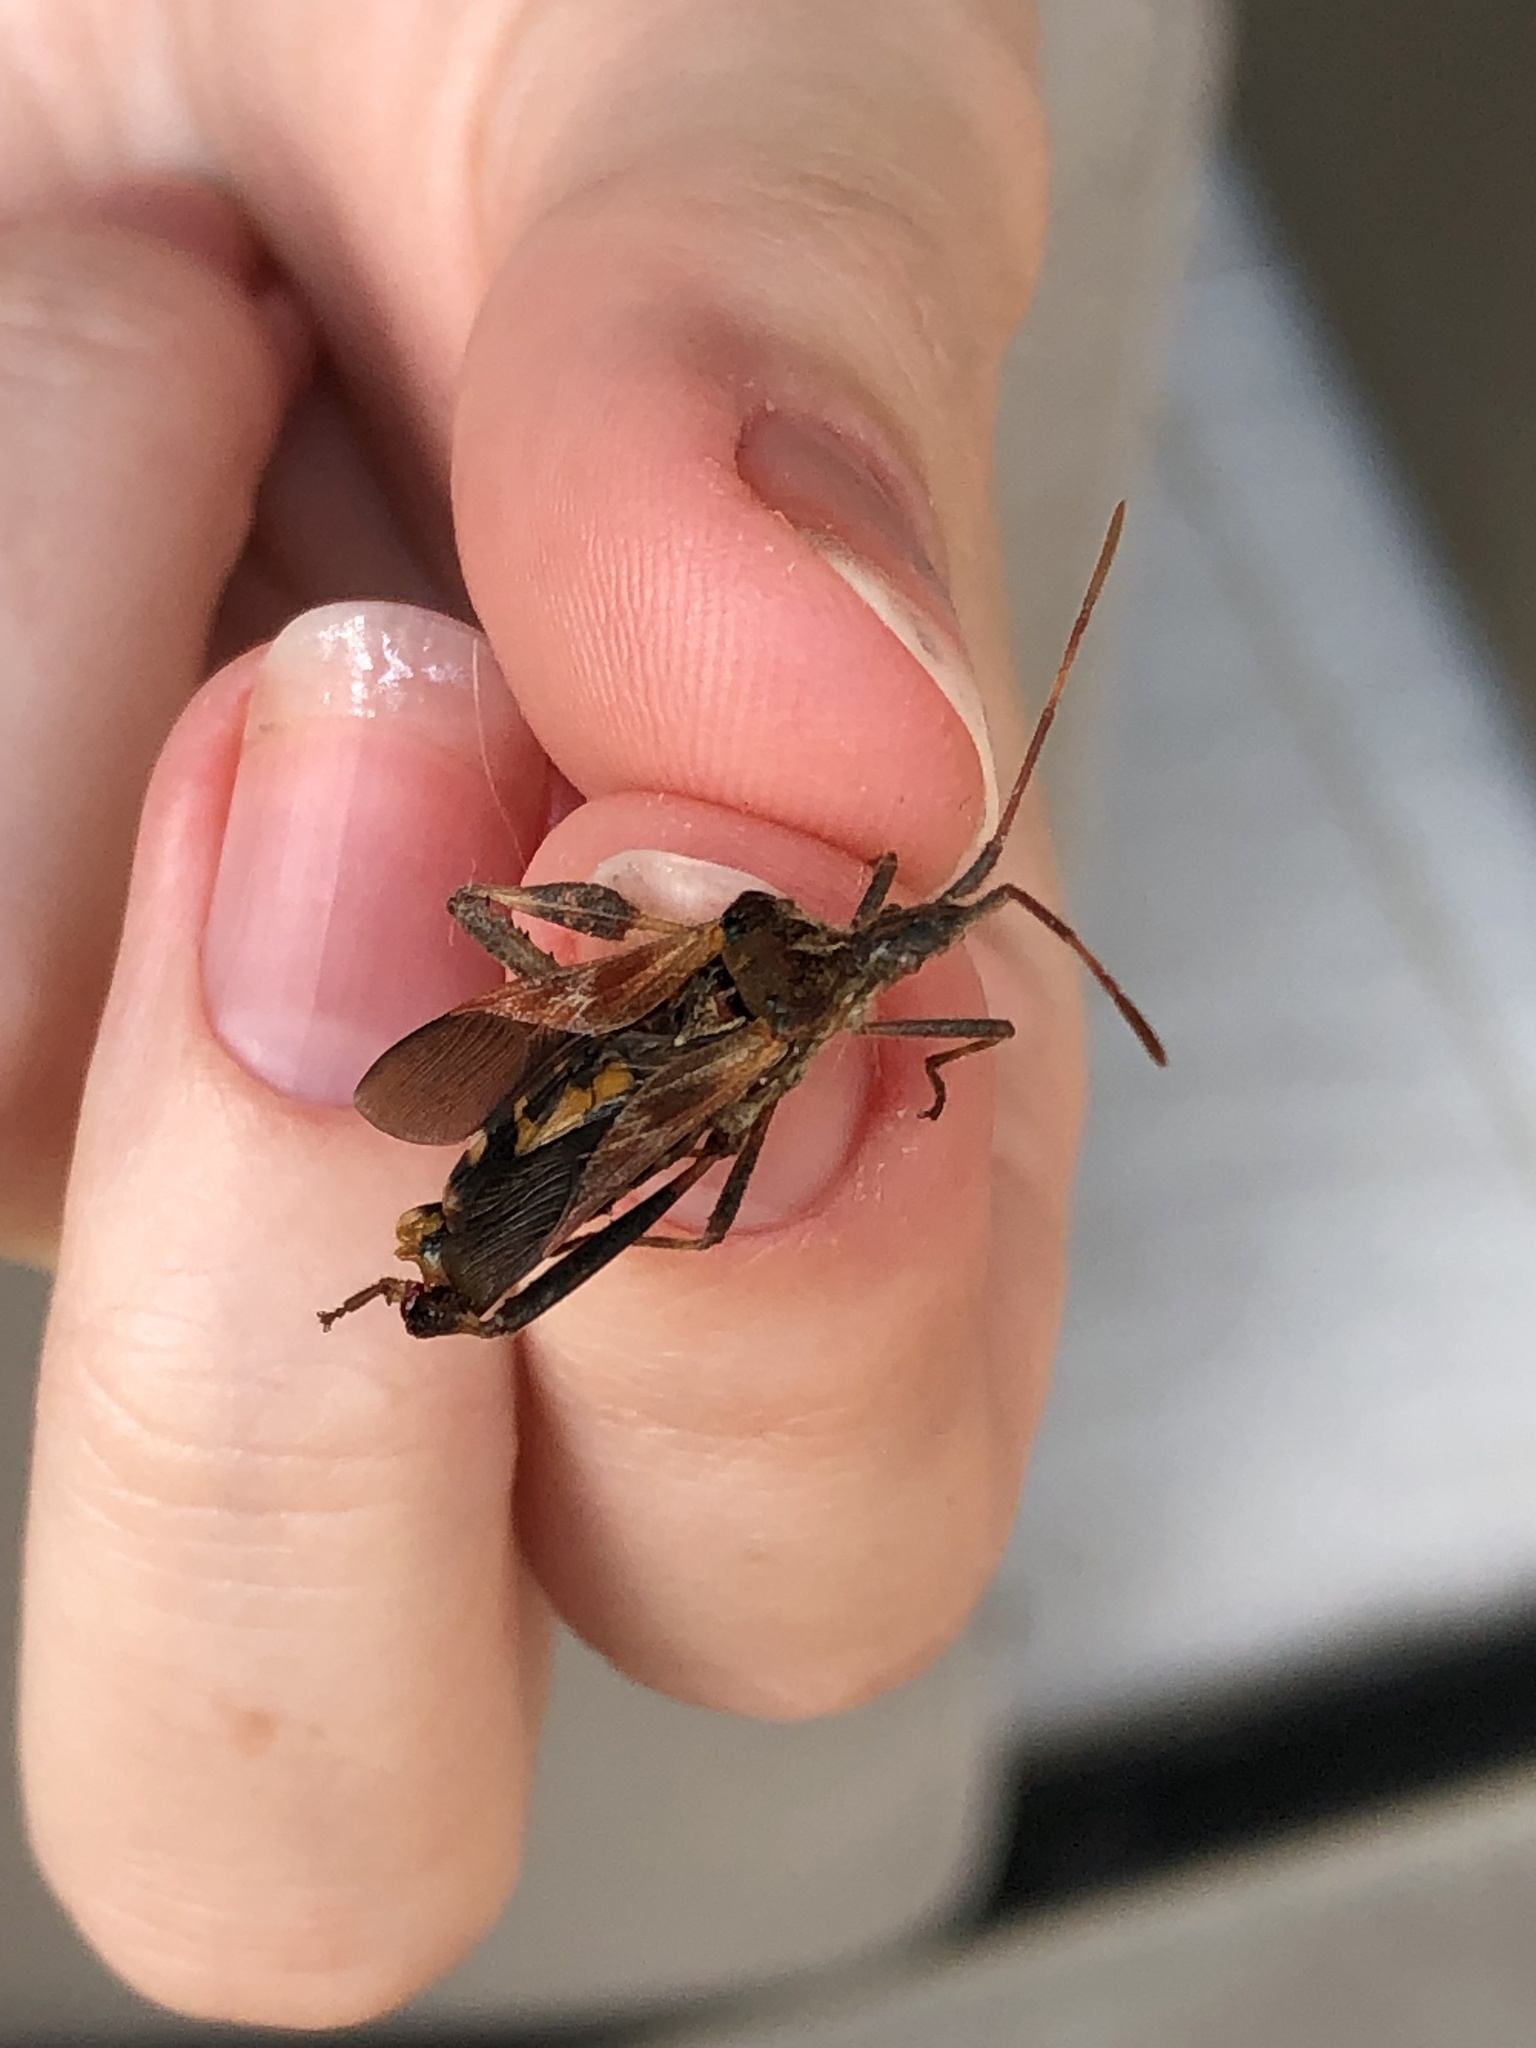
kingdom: Animalia
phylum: Arthropoda
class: Insecta
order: Hemiptera
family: Coreidae
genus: Leptoglossus
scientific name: Leptoglossus occidentalis
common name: Western conifer-seed bug
